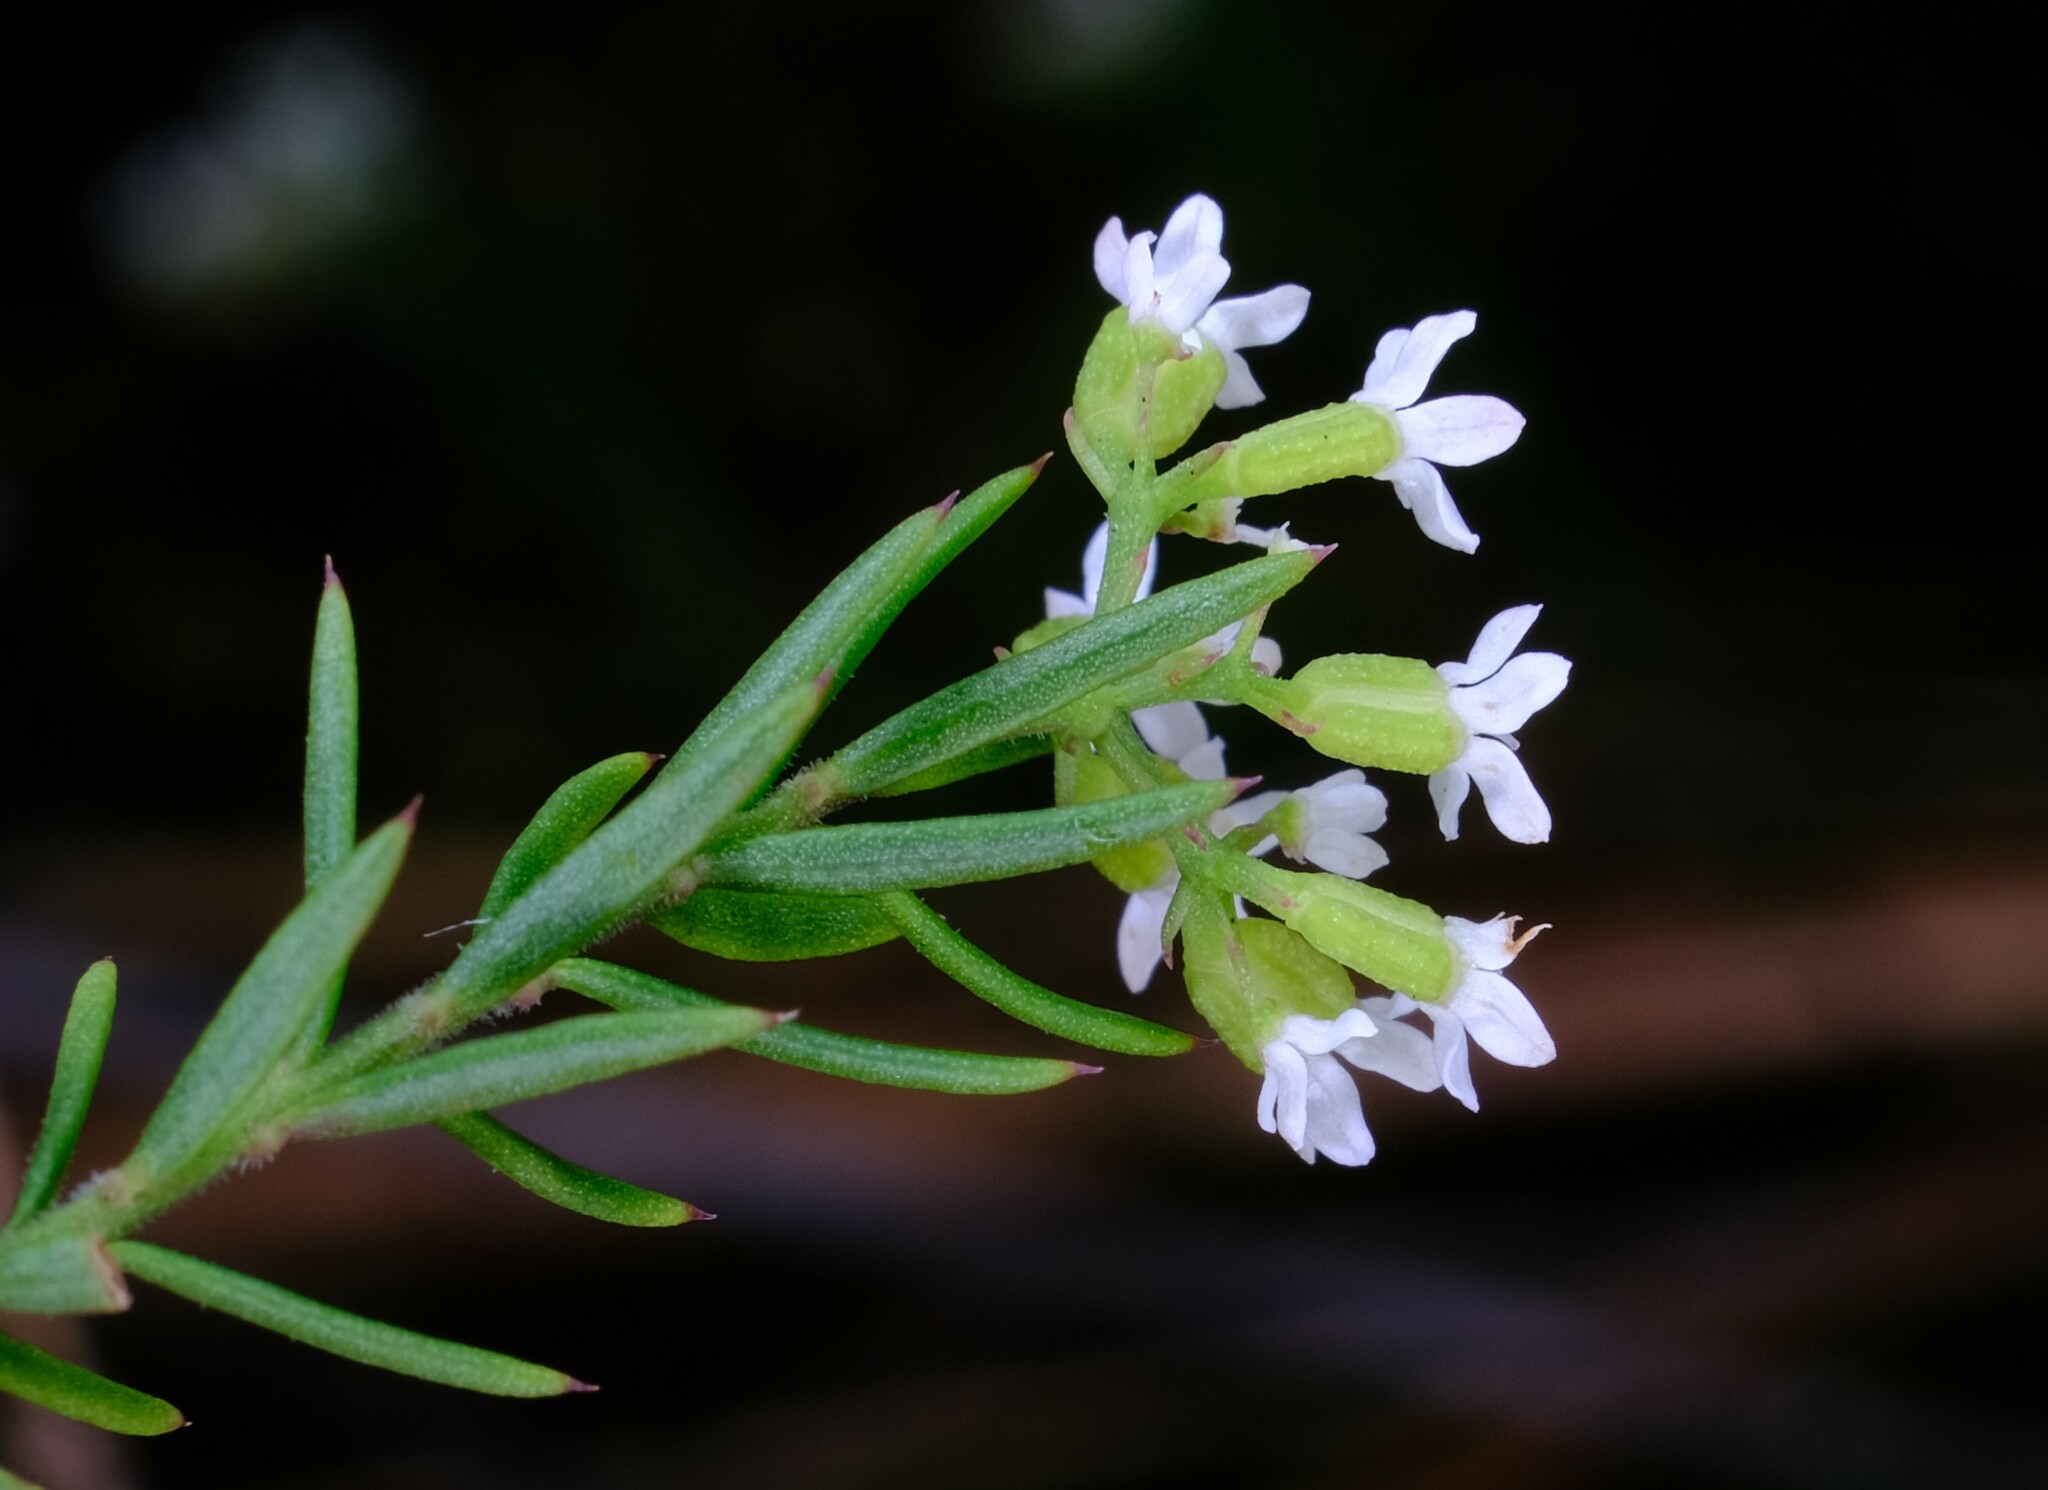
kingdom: Plantae
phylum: Tracheophyta
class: Magnoliopsida
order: Apiales
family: Apiaceae
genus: Platysace
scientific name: Platysace ericoides
